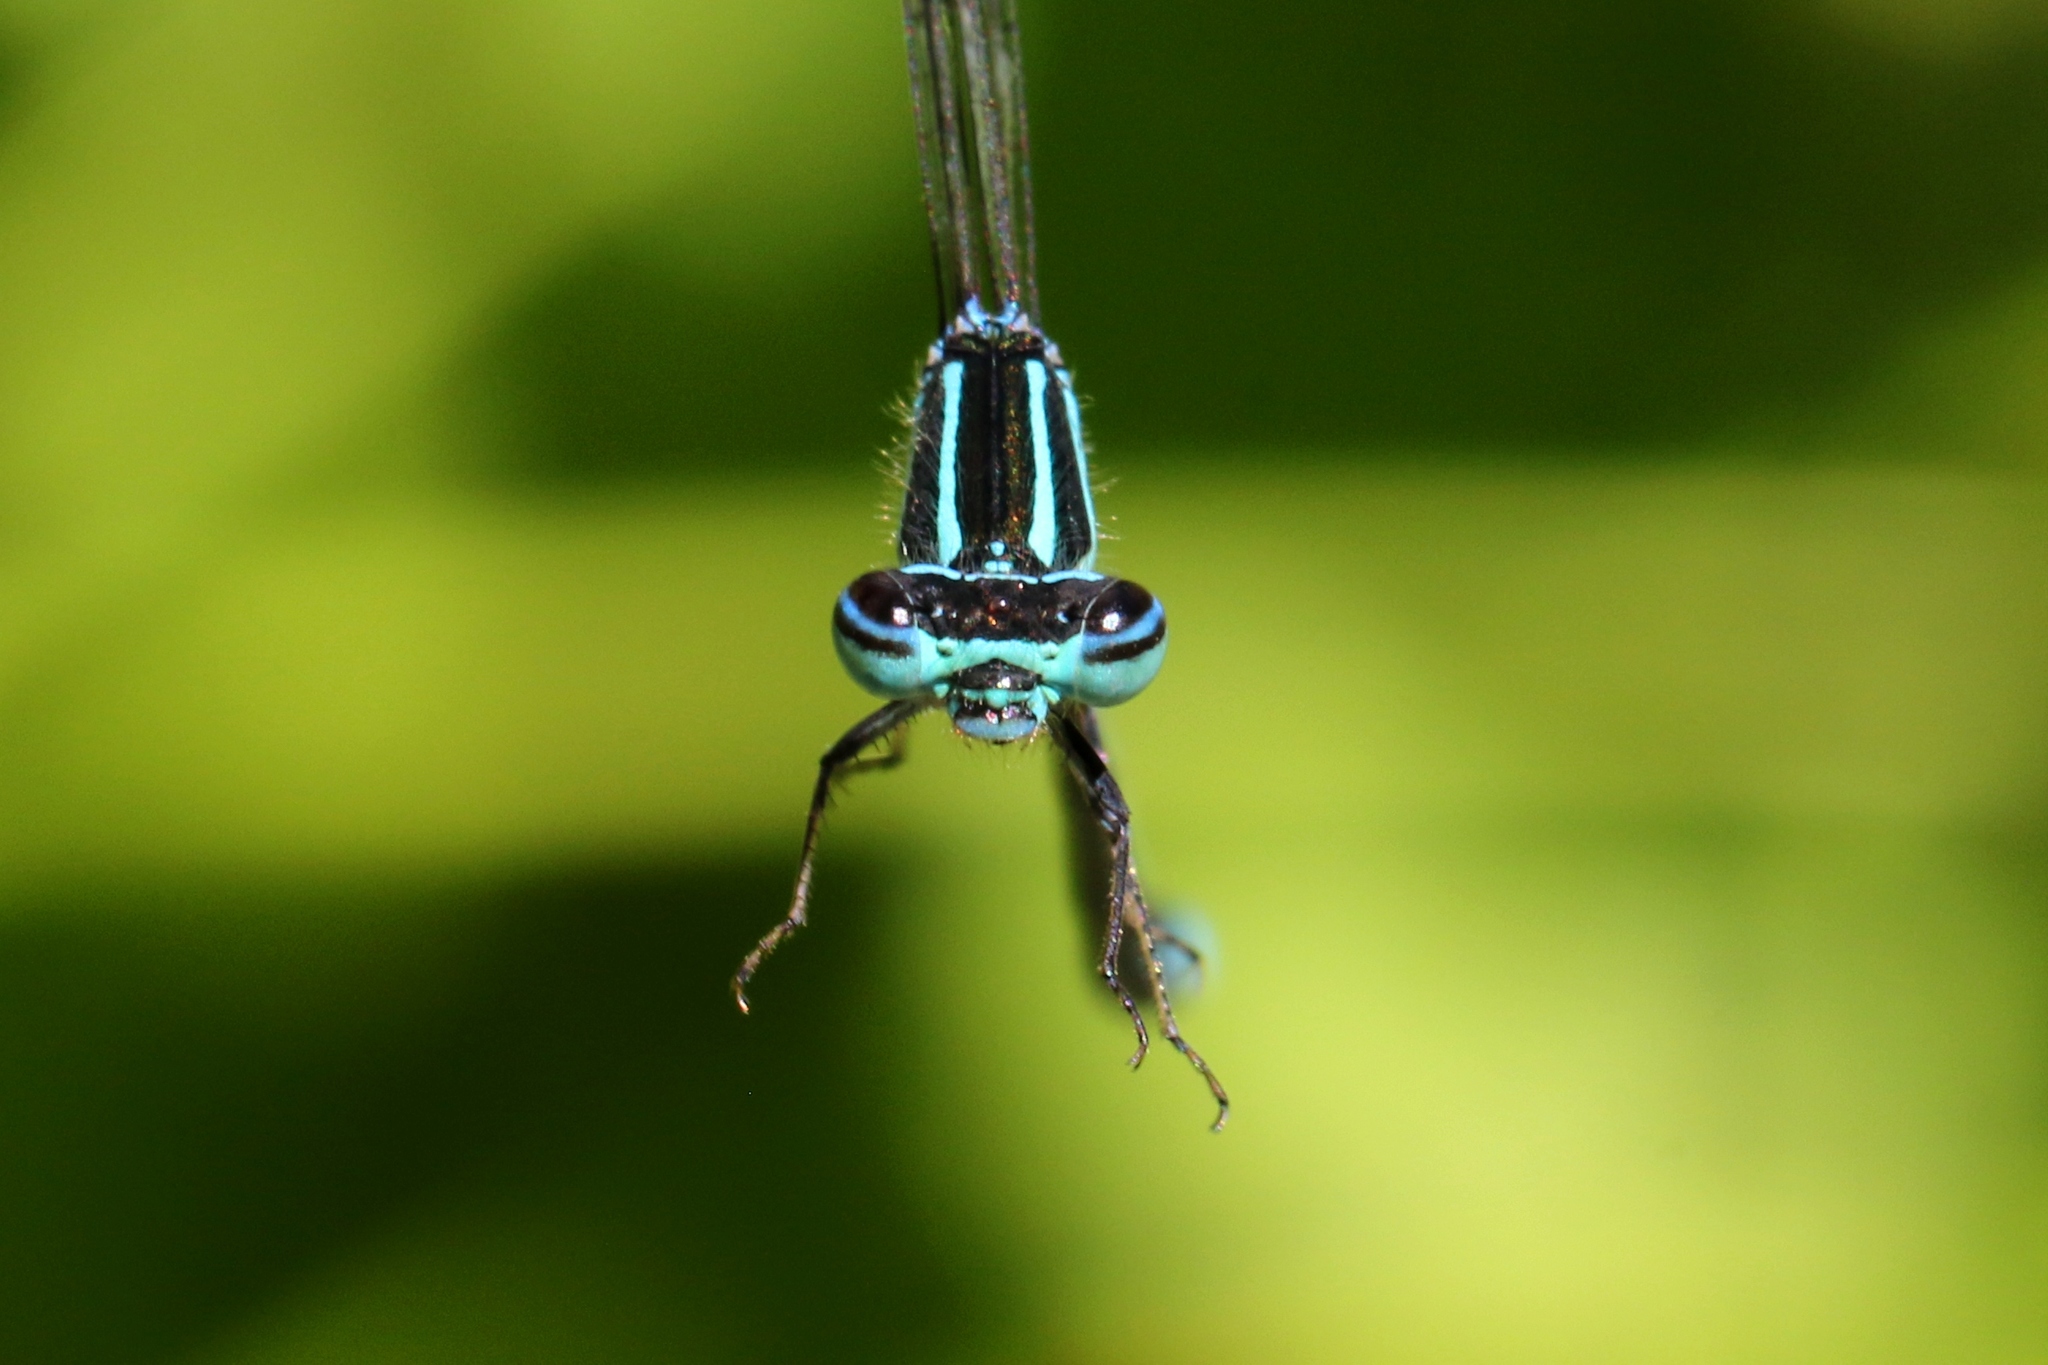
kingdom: Animalia
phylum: Arthropoda
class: Insecta
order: Odonata
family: Coenagrionidae
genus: Enallagma
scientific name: Enallagma exsulans
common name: Stream bluet
